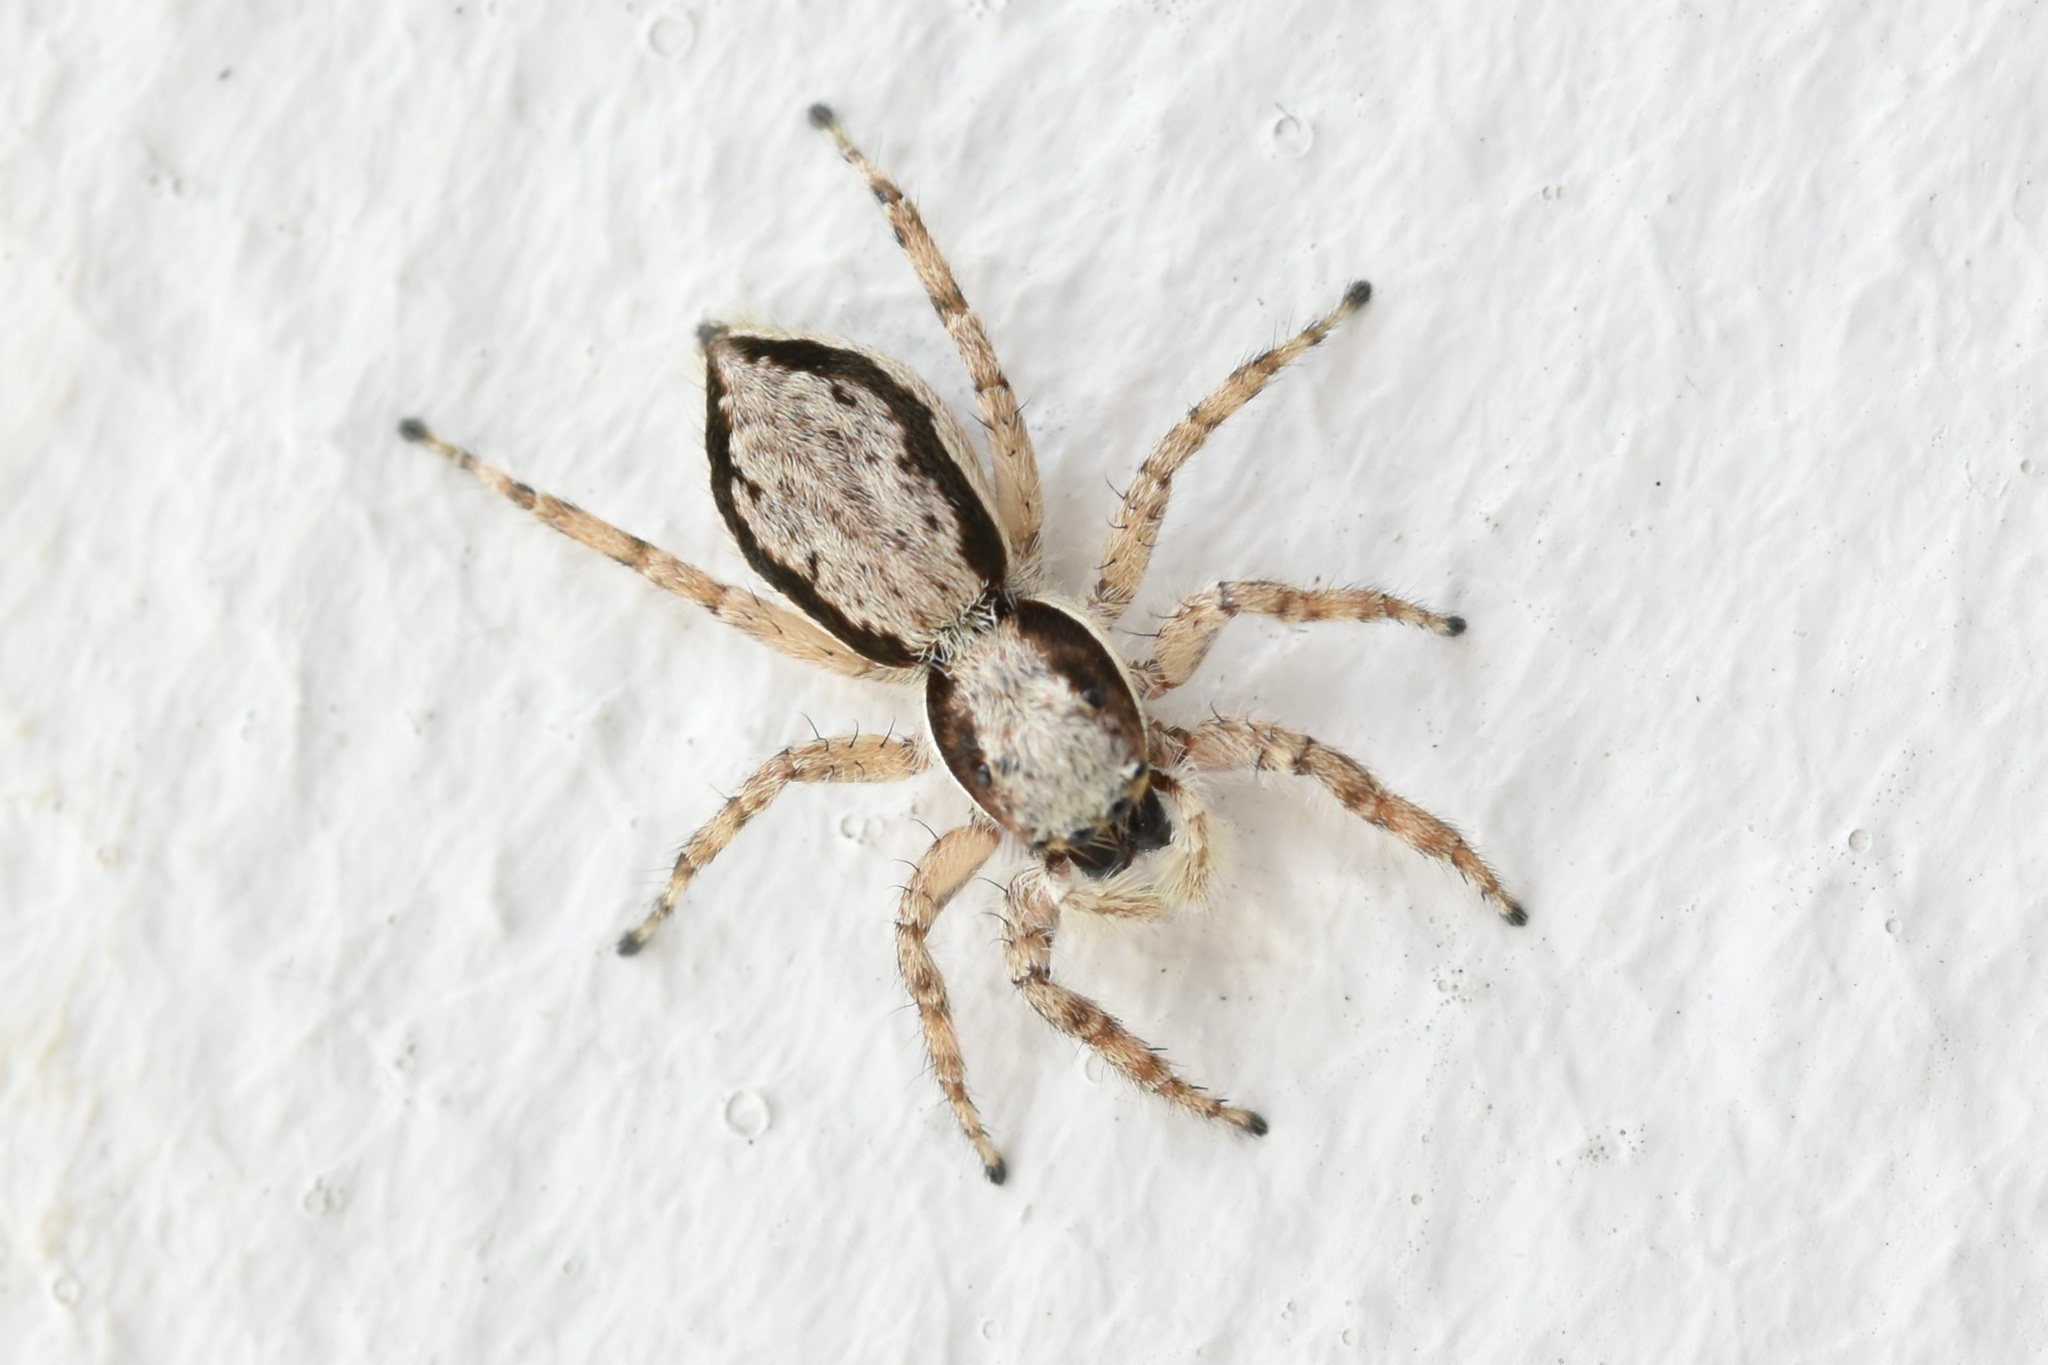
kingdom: Animalia
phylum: Arthropoda
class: Arachnida
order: Araneae
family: Salticidae
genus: Menemerus
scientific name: Menemerus bivittatus
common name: Gray wall jumper
